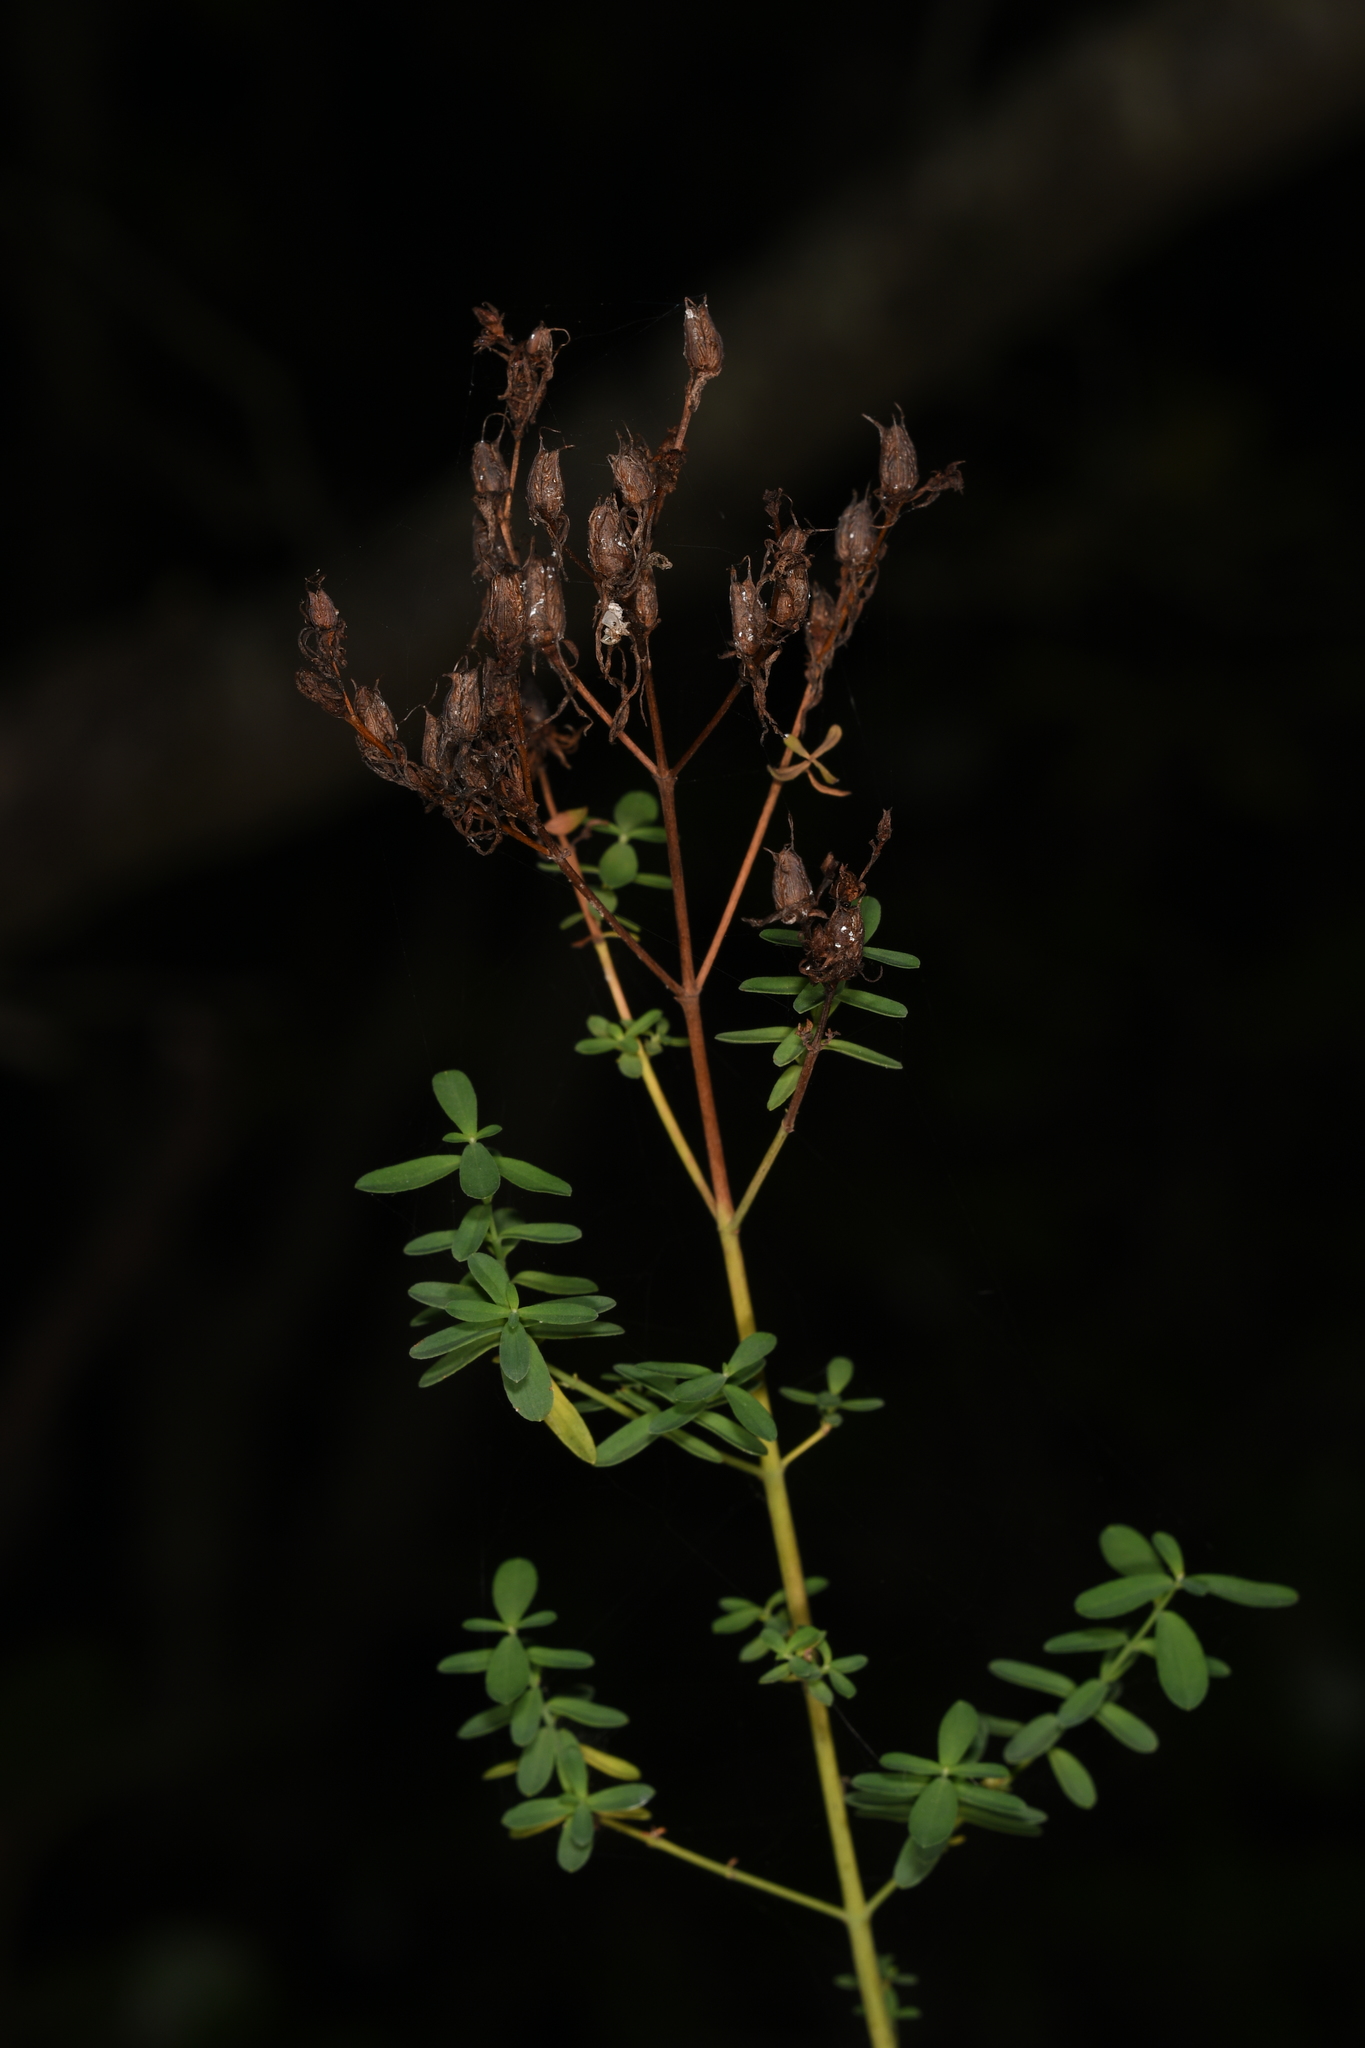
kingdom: Plantae
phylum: Tracheophyta
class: Magnoliopsida
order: Malpighiales
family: Hypericaceae
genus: Hypericum
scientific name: Hypericum perforatum
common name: Common st. johnswort
